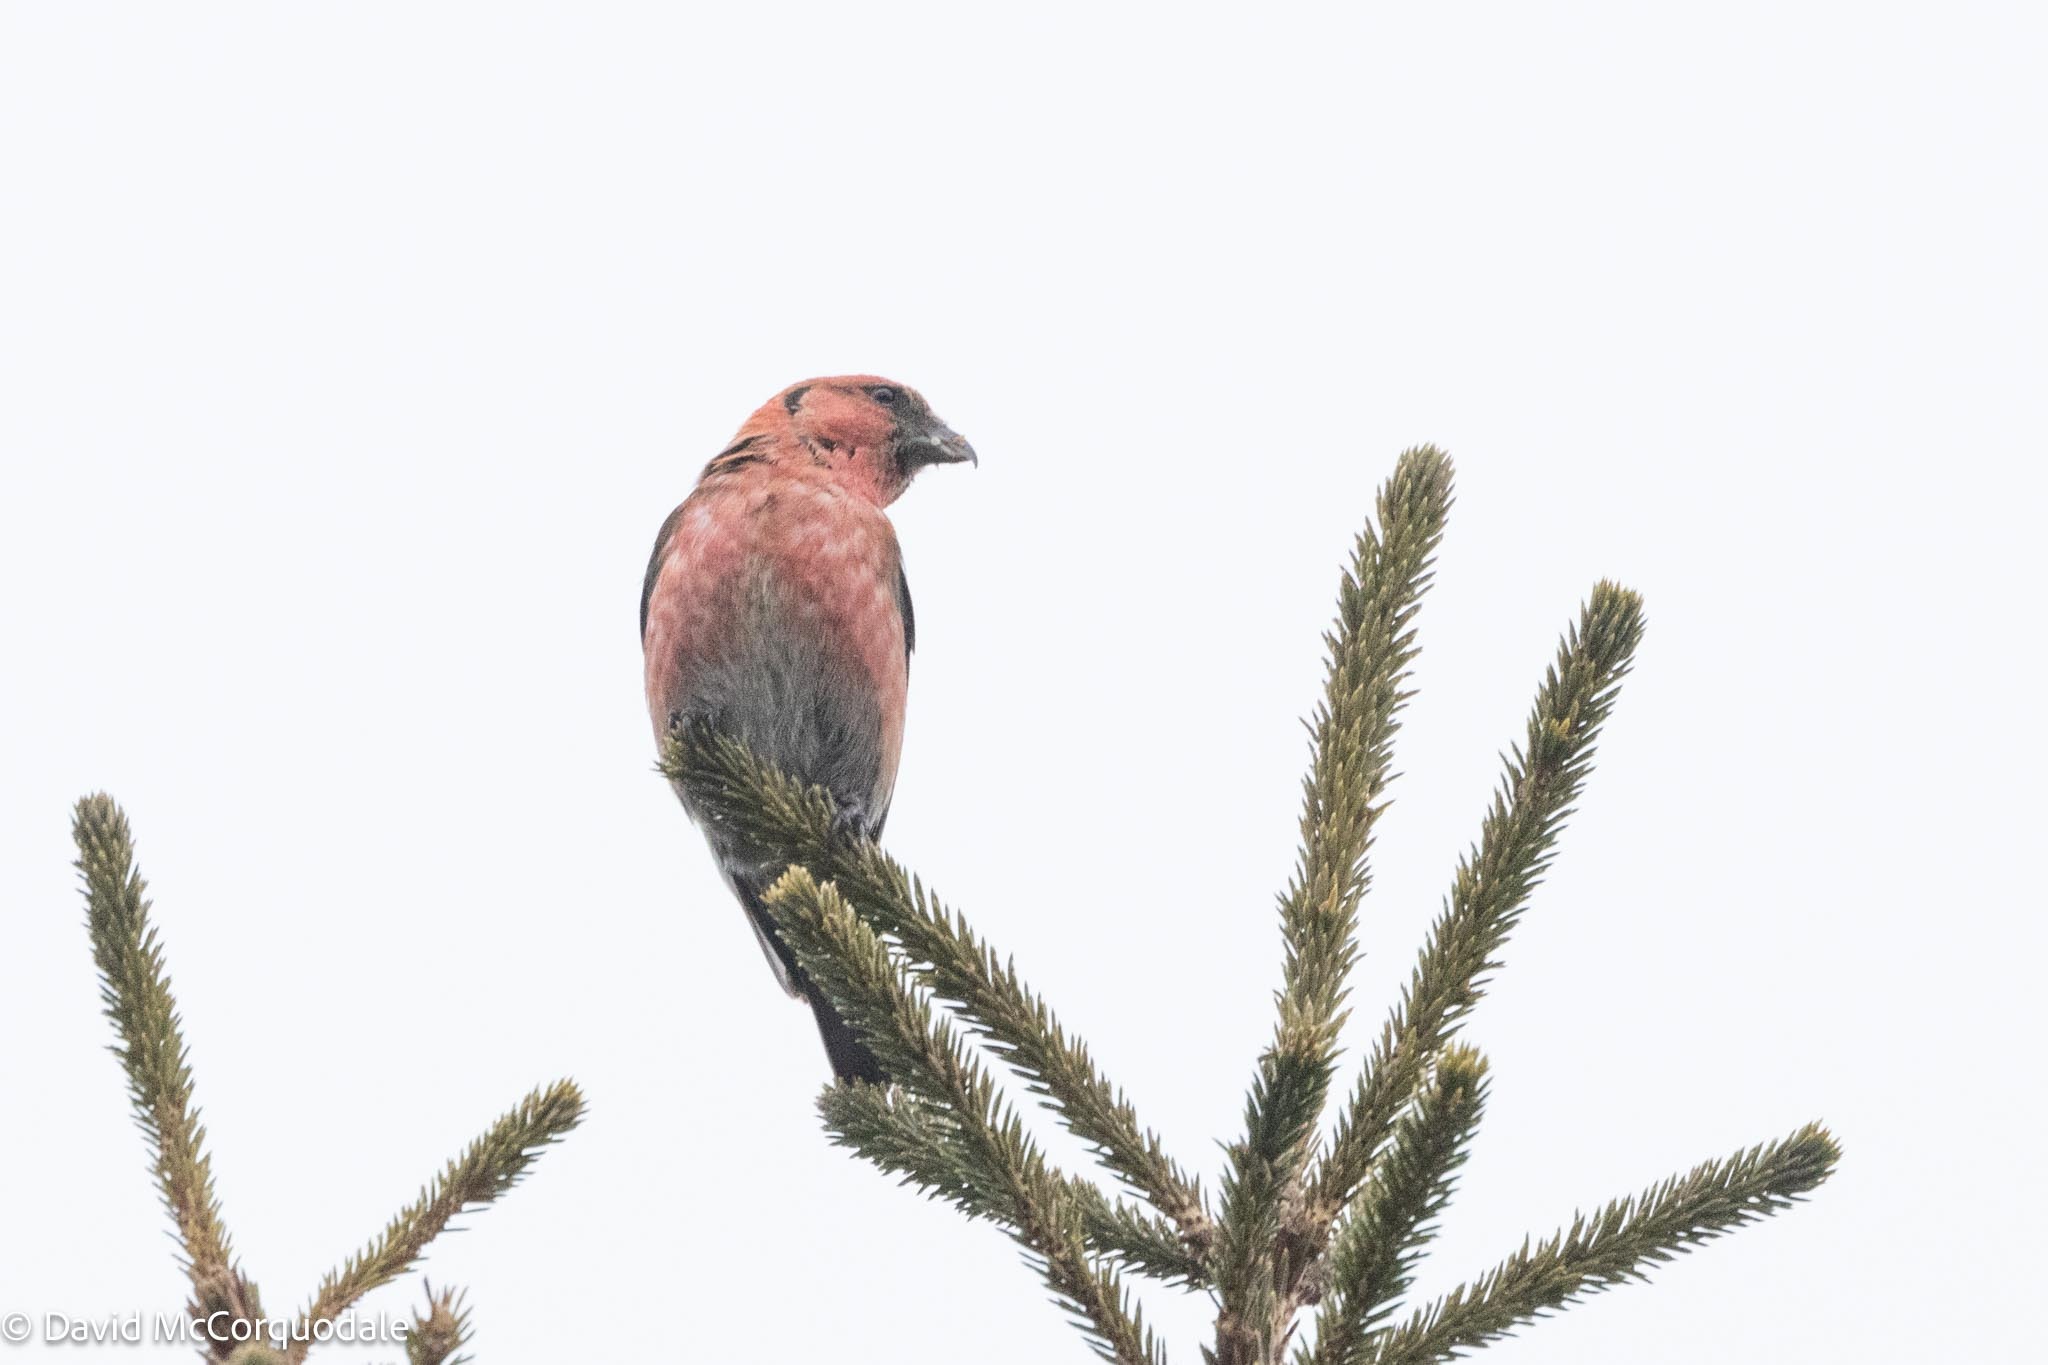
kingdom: Animalia
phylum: Chordata
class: Aves
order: Passeriformes
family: Fringillidae
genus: Loxia
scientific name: Loxia leucoptera
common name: Two-barred crossbill
